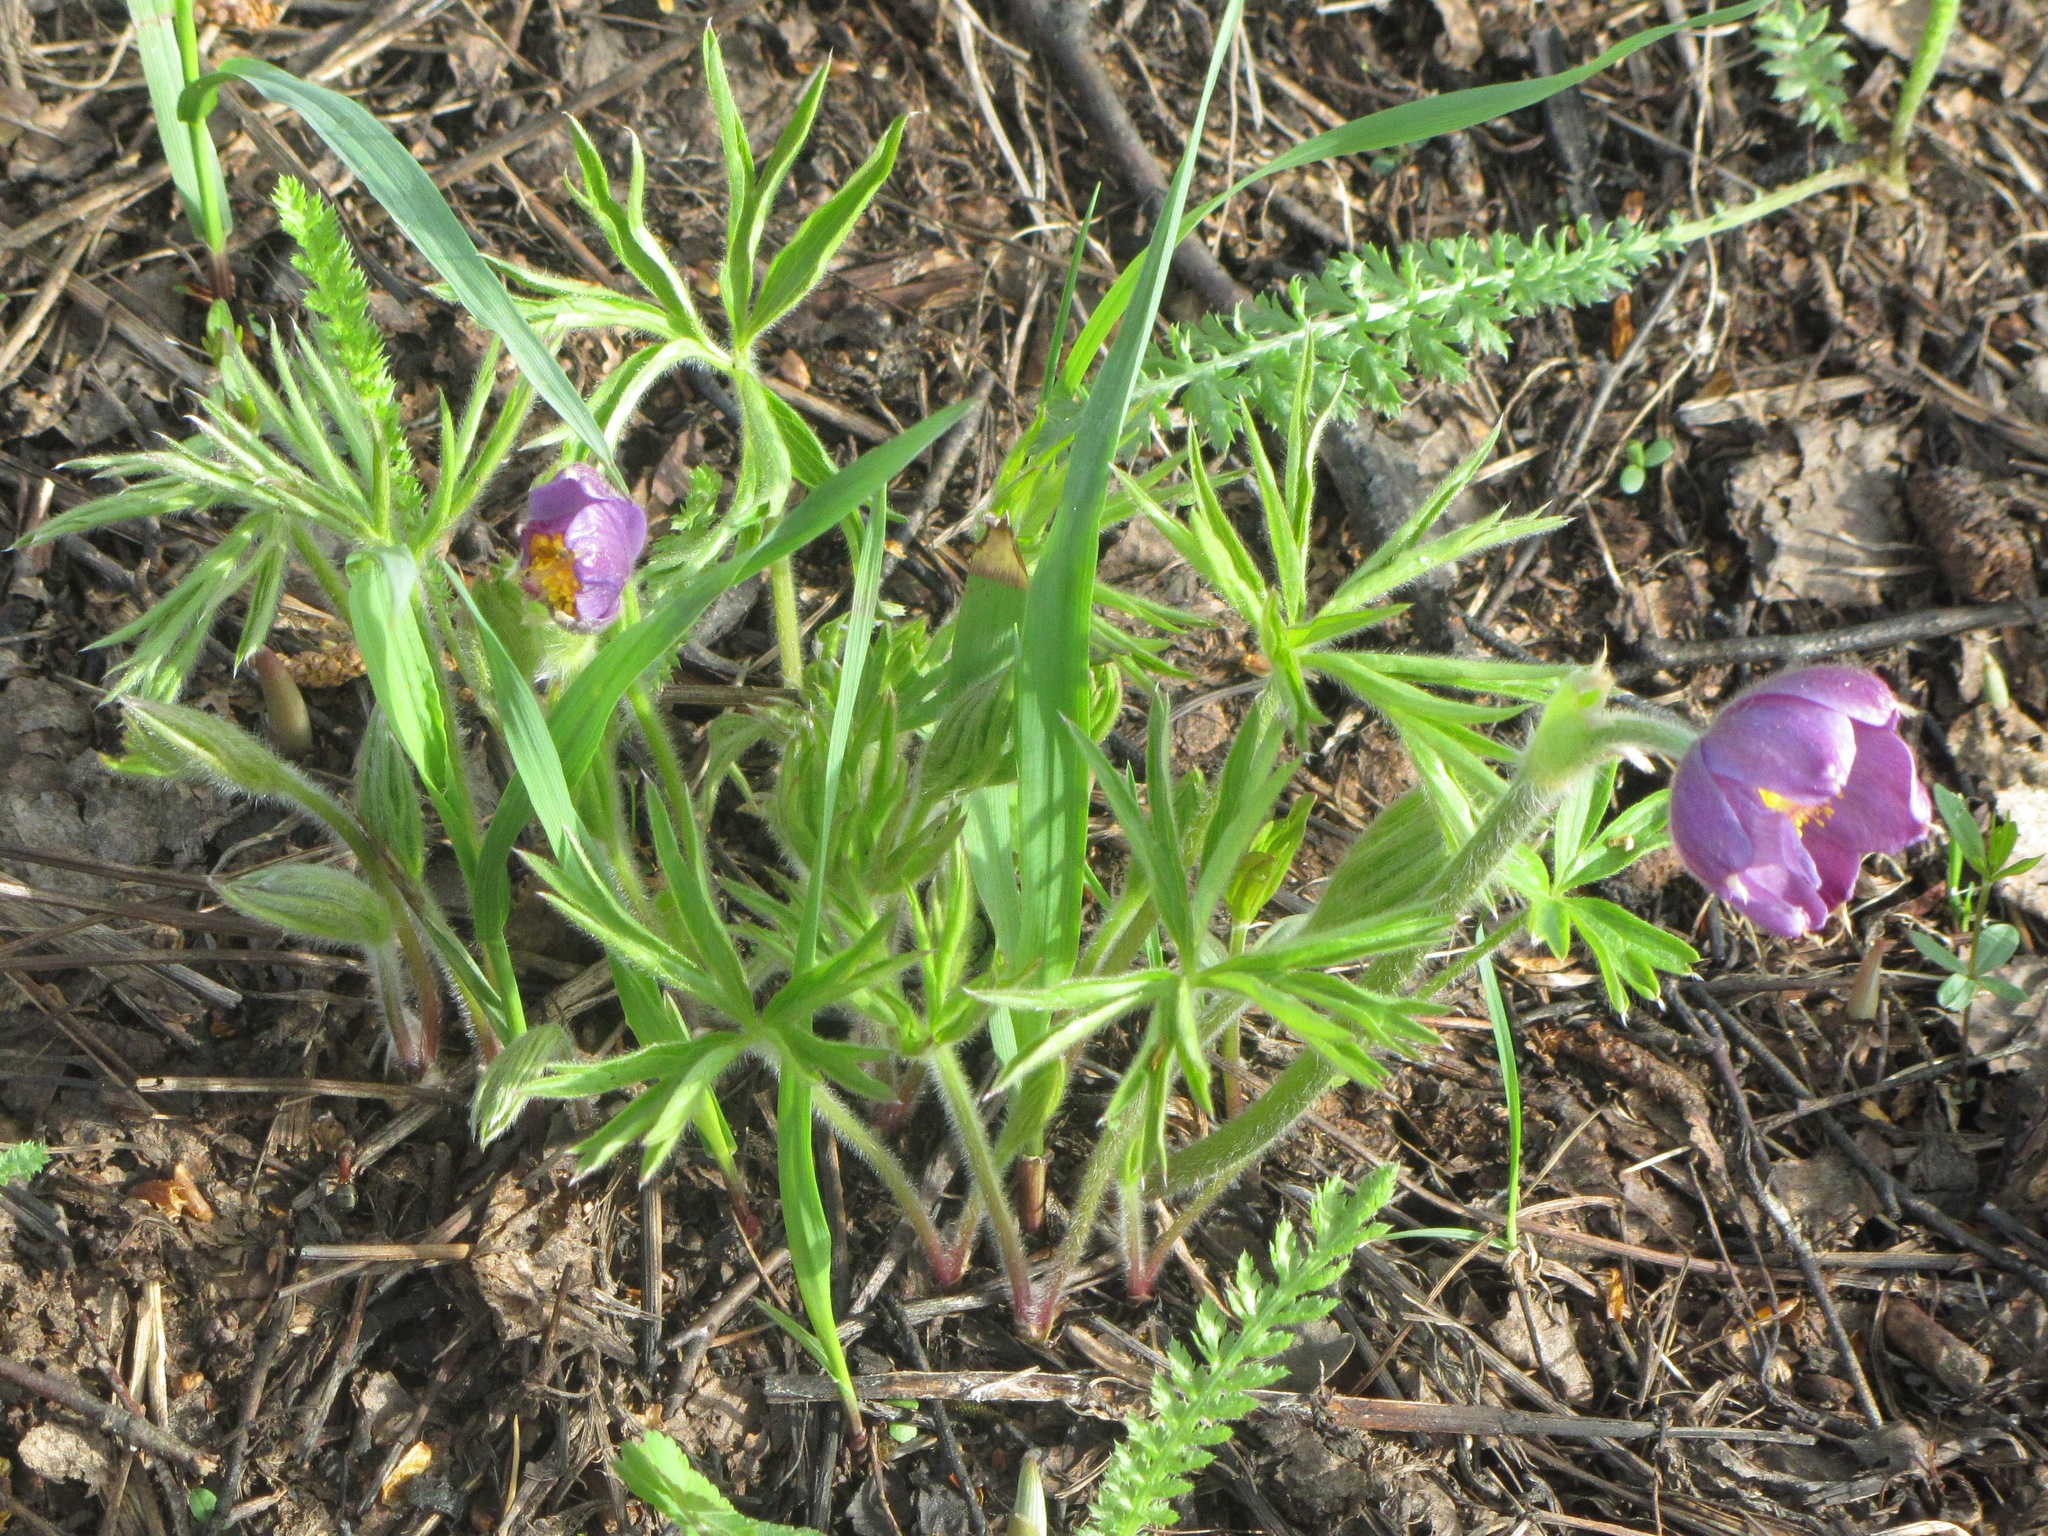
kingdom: Plantae
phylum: Tracheophyta
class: Magnoliopsida
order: Ranunculales
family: Ranunculaceae
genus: Pulsatilla
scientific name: Pulsatilla patens
